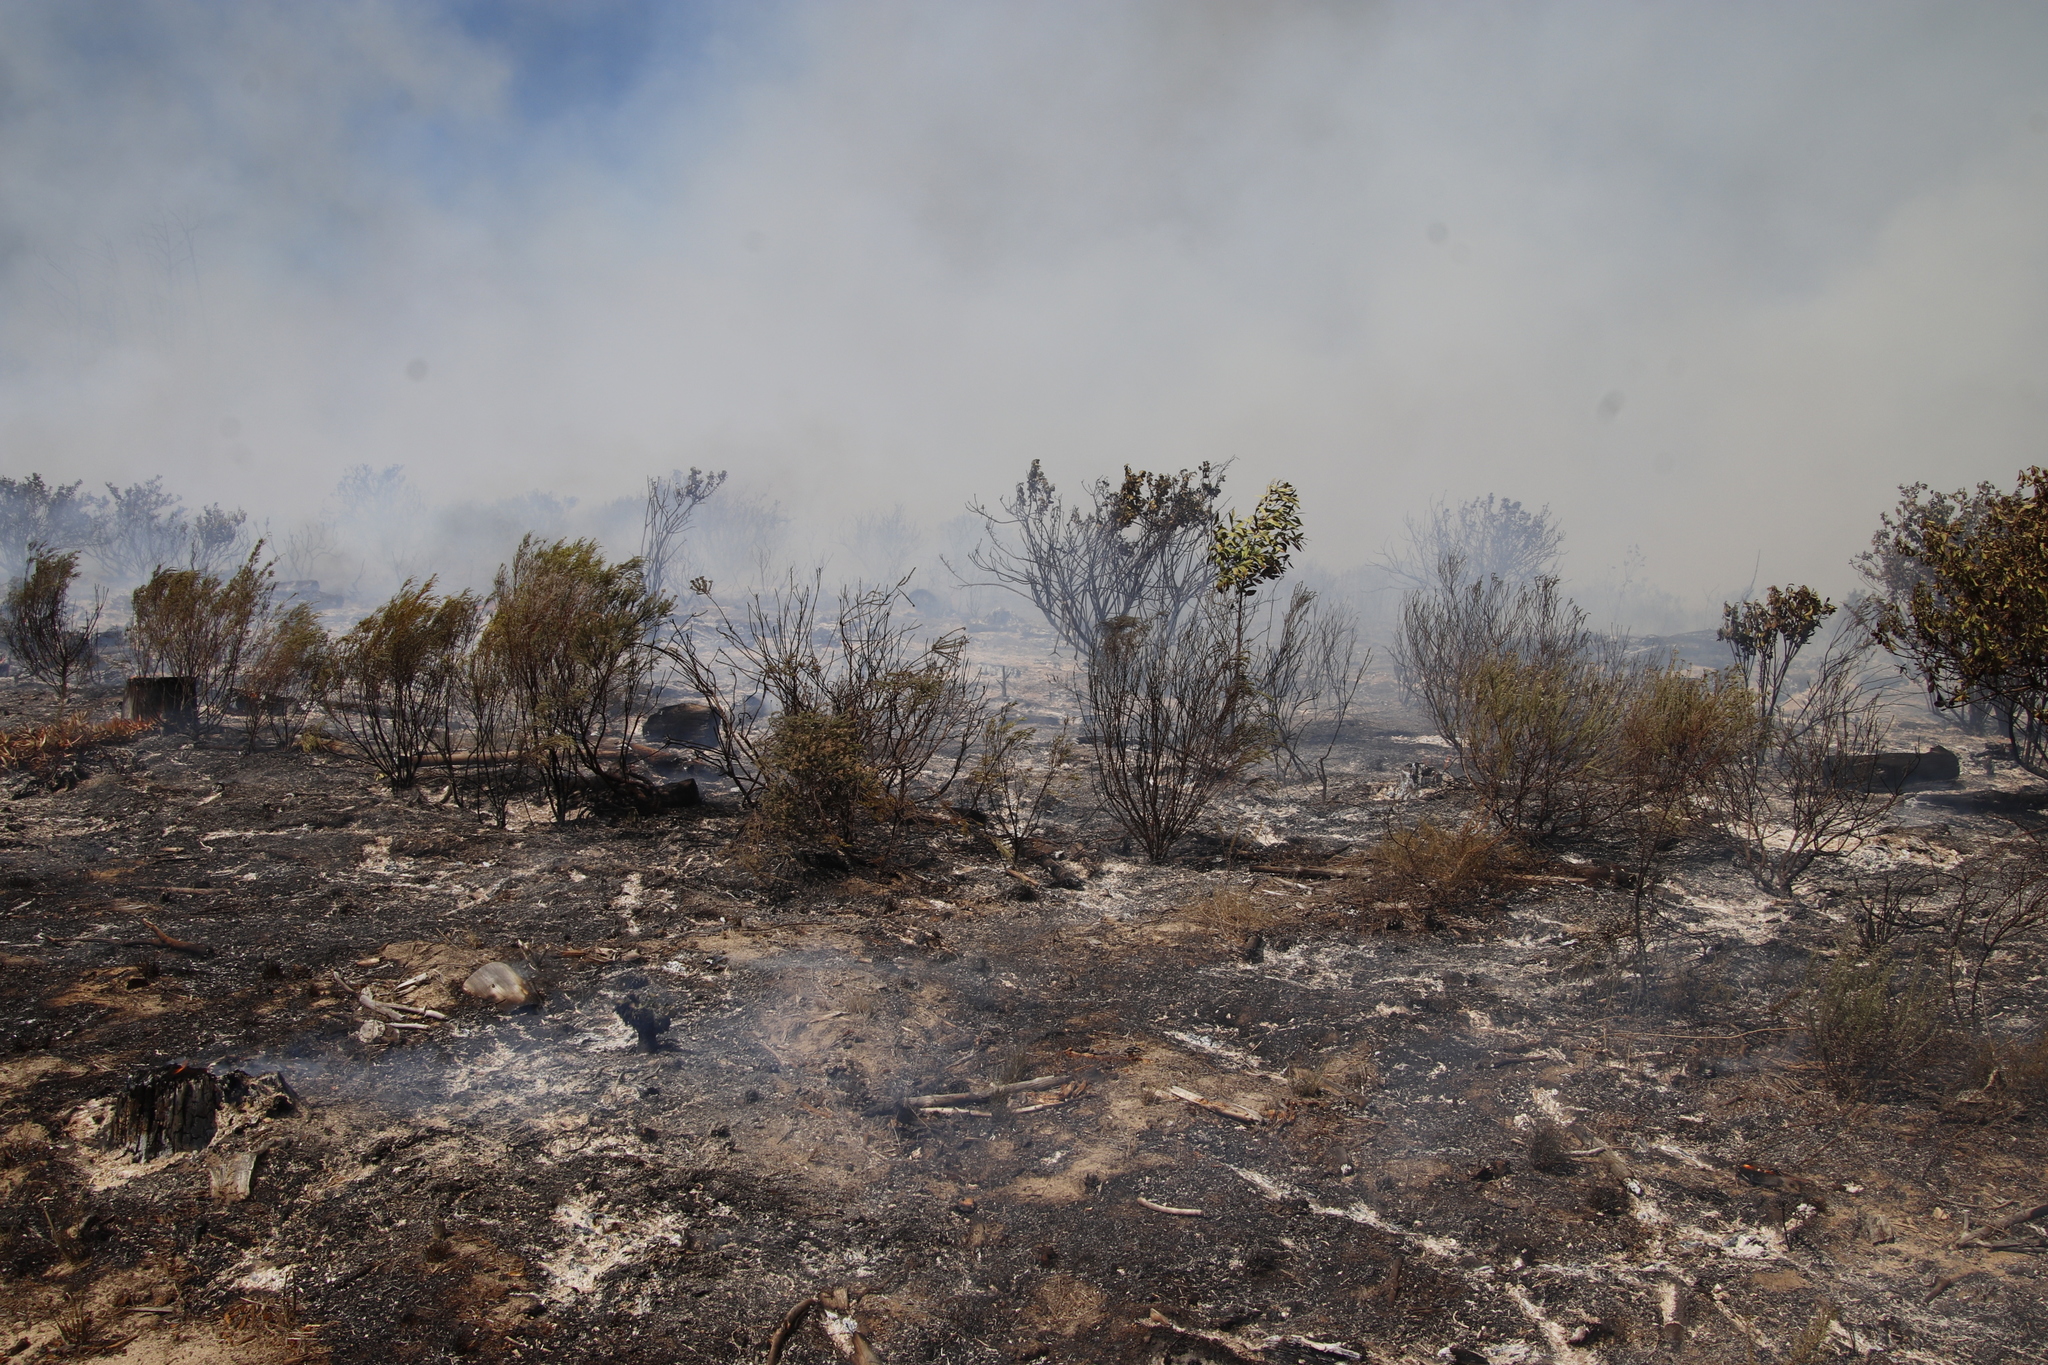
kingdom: Plantae
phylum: Tracheophyta
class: Magnoliopsida
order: Malvales
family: Thymelaeaceae
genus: Passerina
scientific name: Passerina corymbosa
